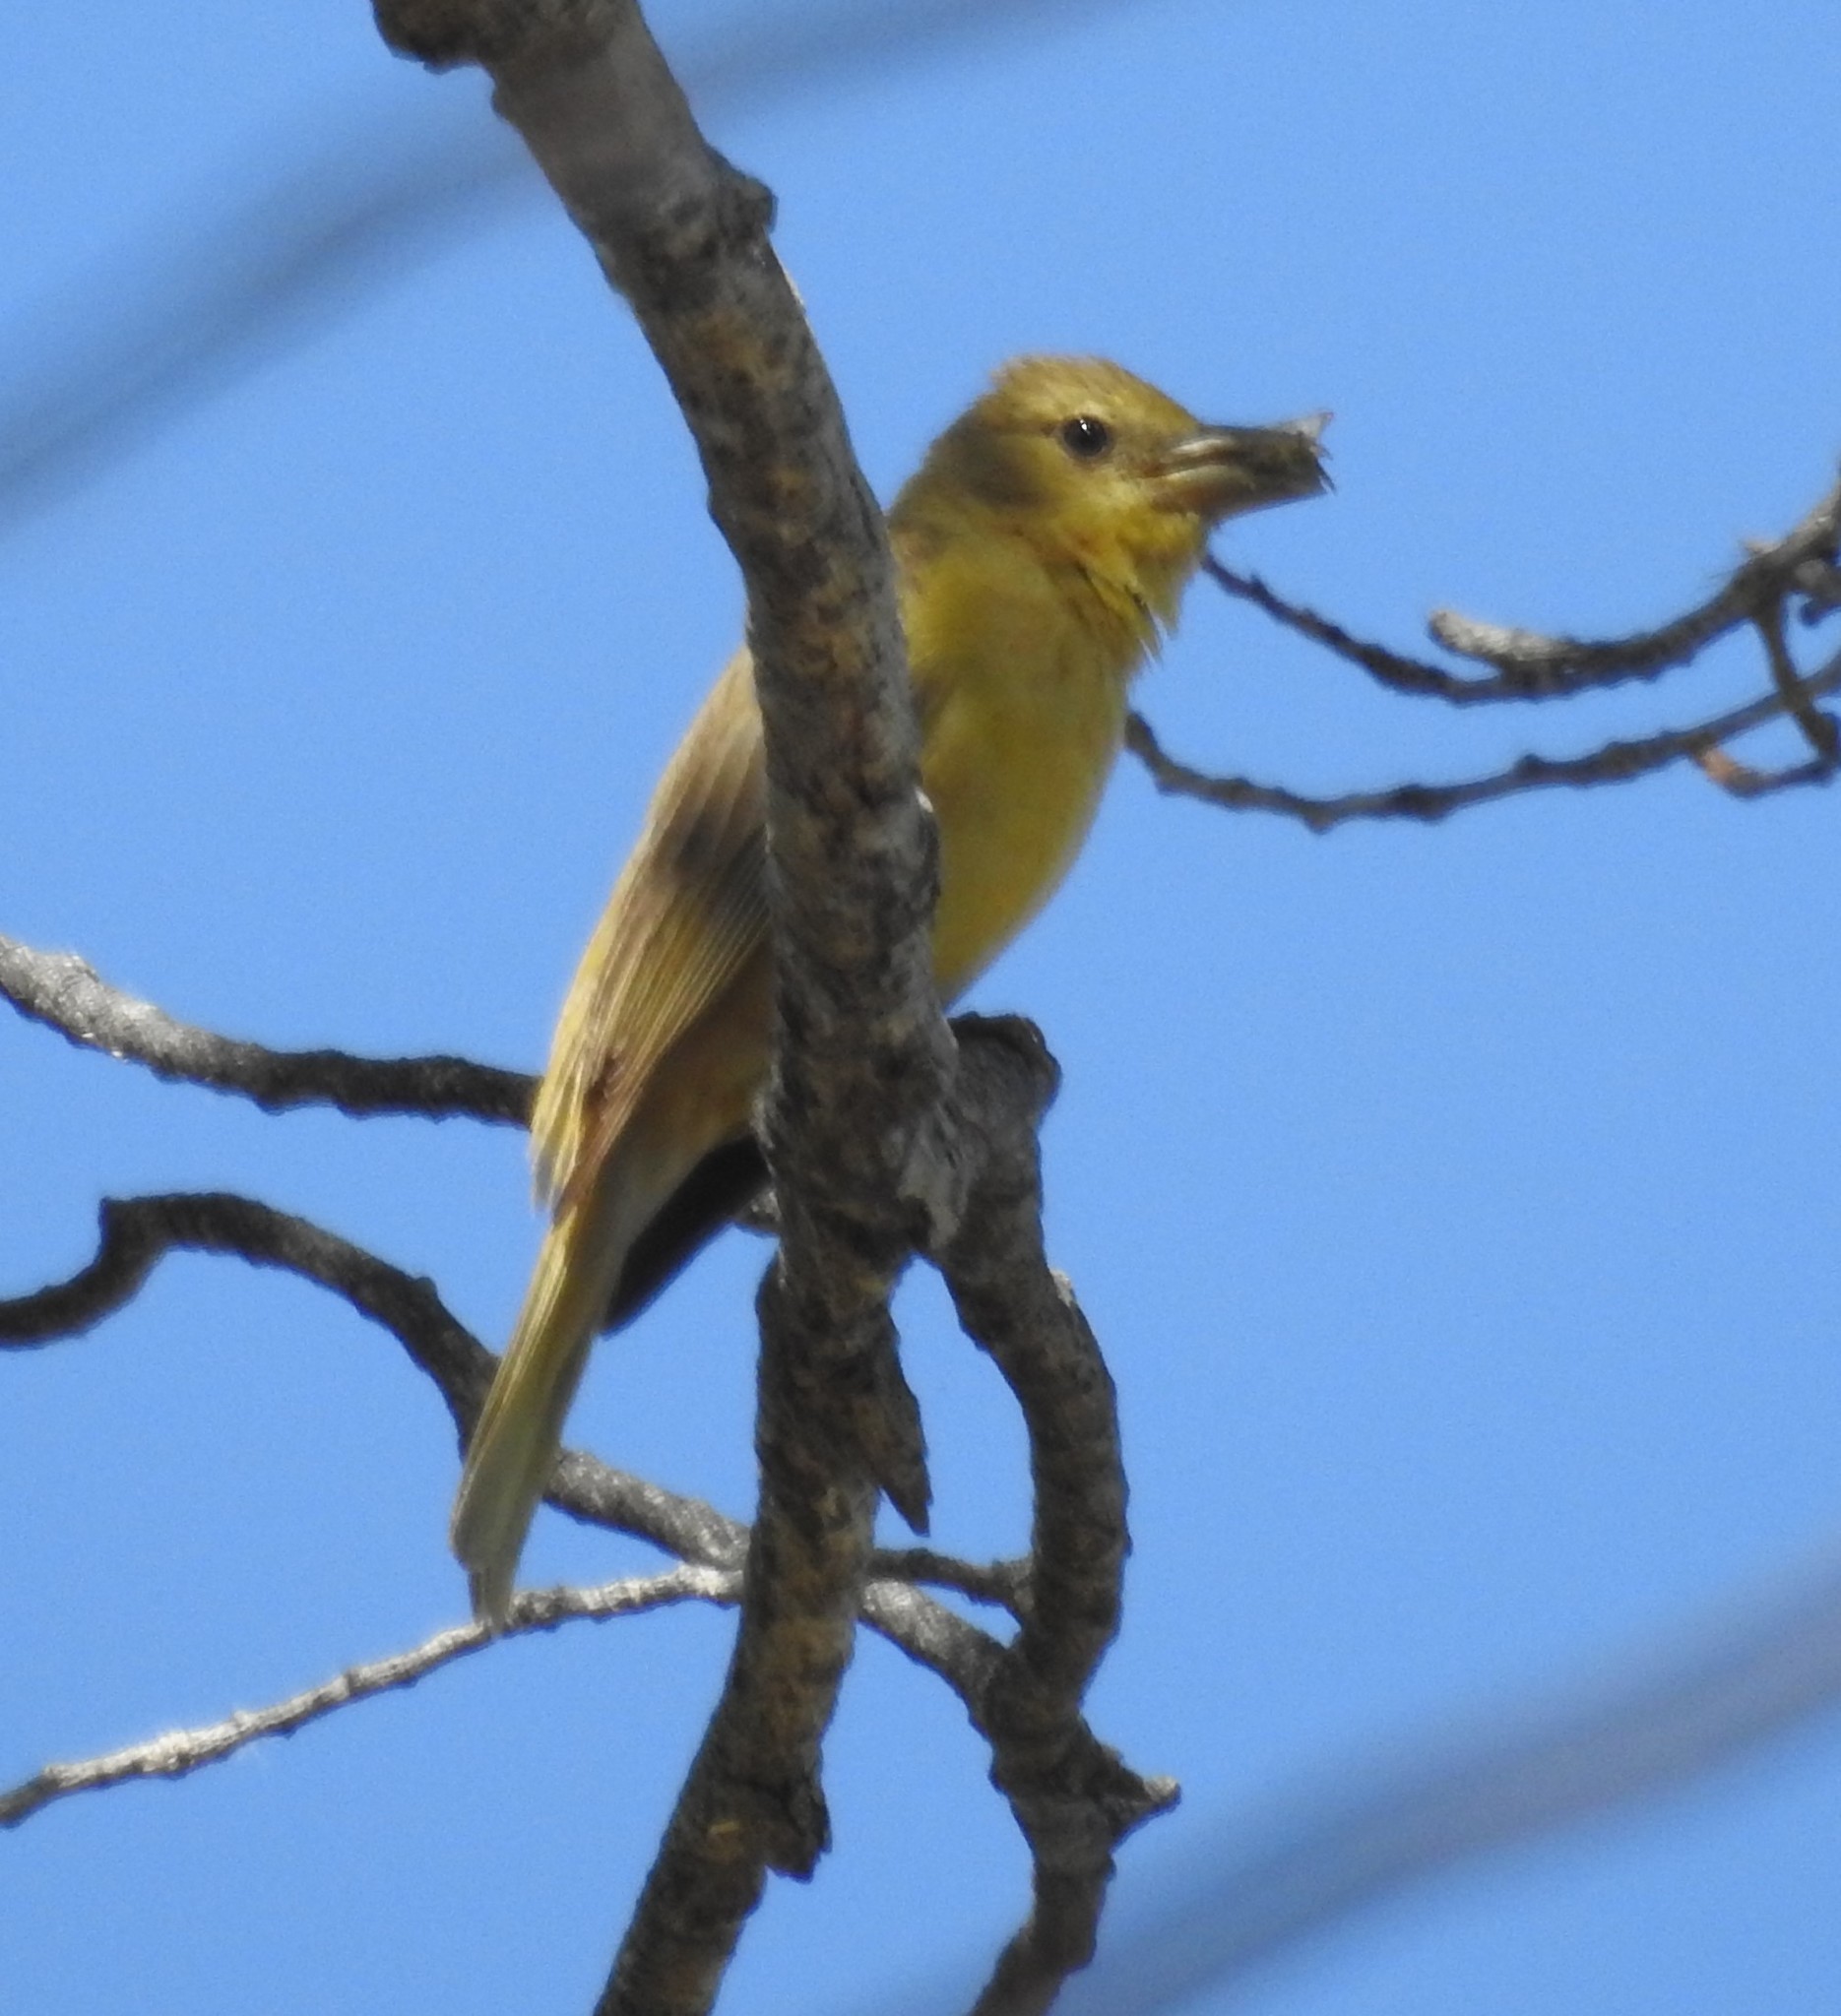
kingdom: Animalia
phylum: Chordata
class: Aves
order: Passeriformes
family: Cardinalidae
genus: Piranga
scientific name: Piranga rubra
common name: Summer tanager
